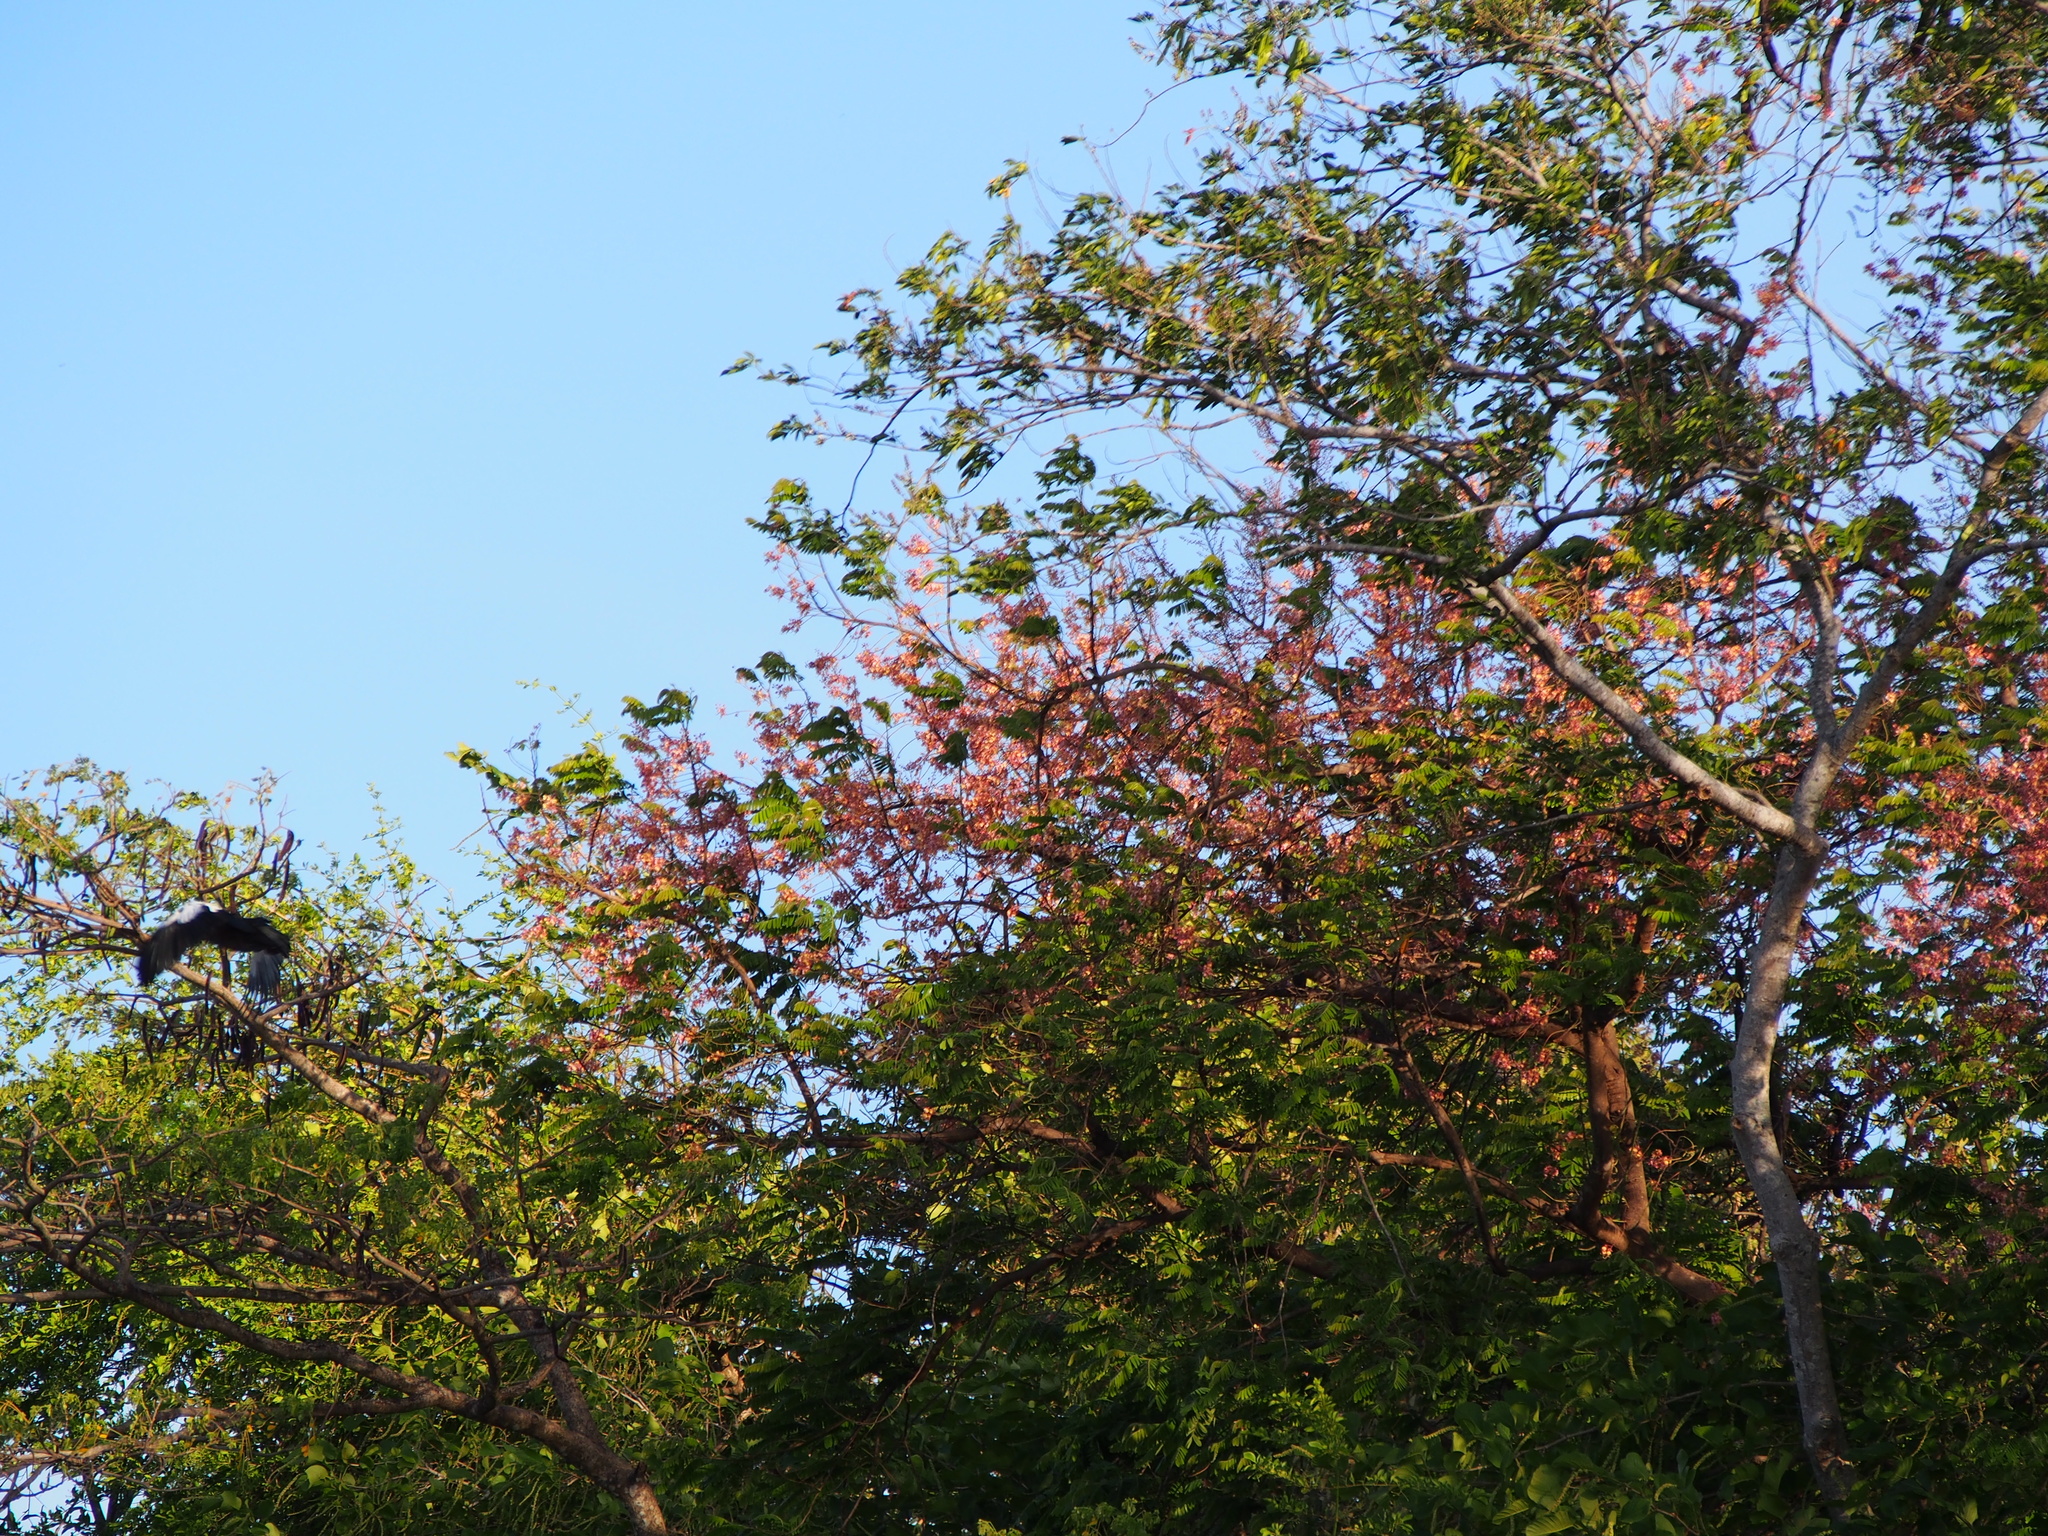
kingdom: Plantae
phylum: Tracheophyta
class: Magnoliopsida
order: Fabales
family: Fabaceae
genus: Cassia
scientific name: Cassia grandis
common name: Appleblossom cassia
